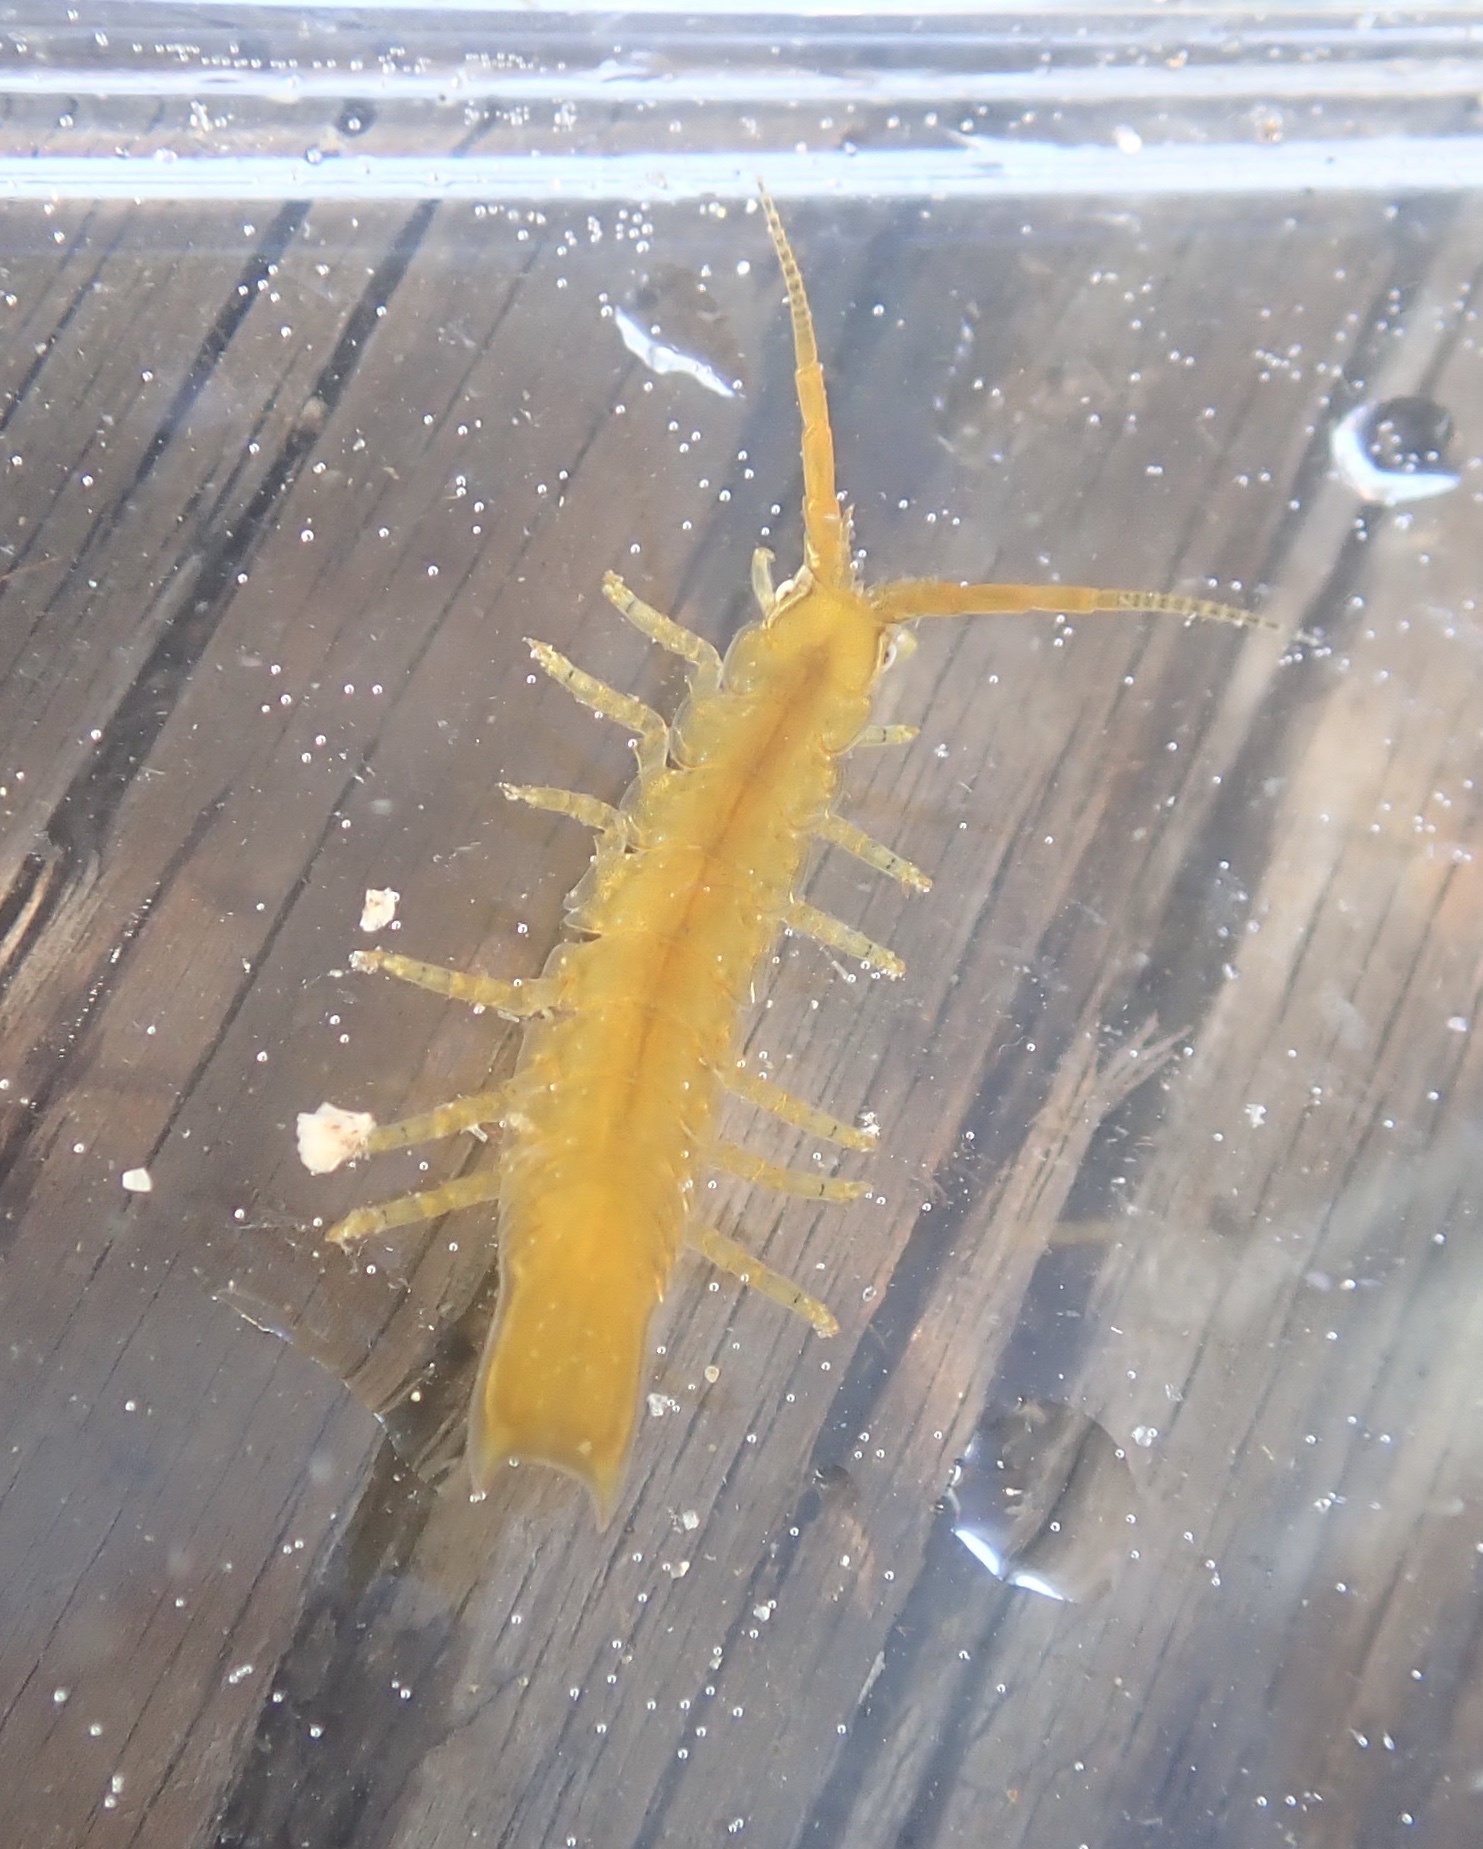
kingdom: Animalia
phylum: Arthropoda
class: Malacostraca
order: Isopoda
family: Idoteidae
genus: Pentidotea
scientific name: Pentidotea resecata
